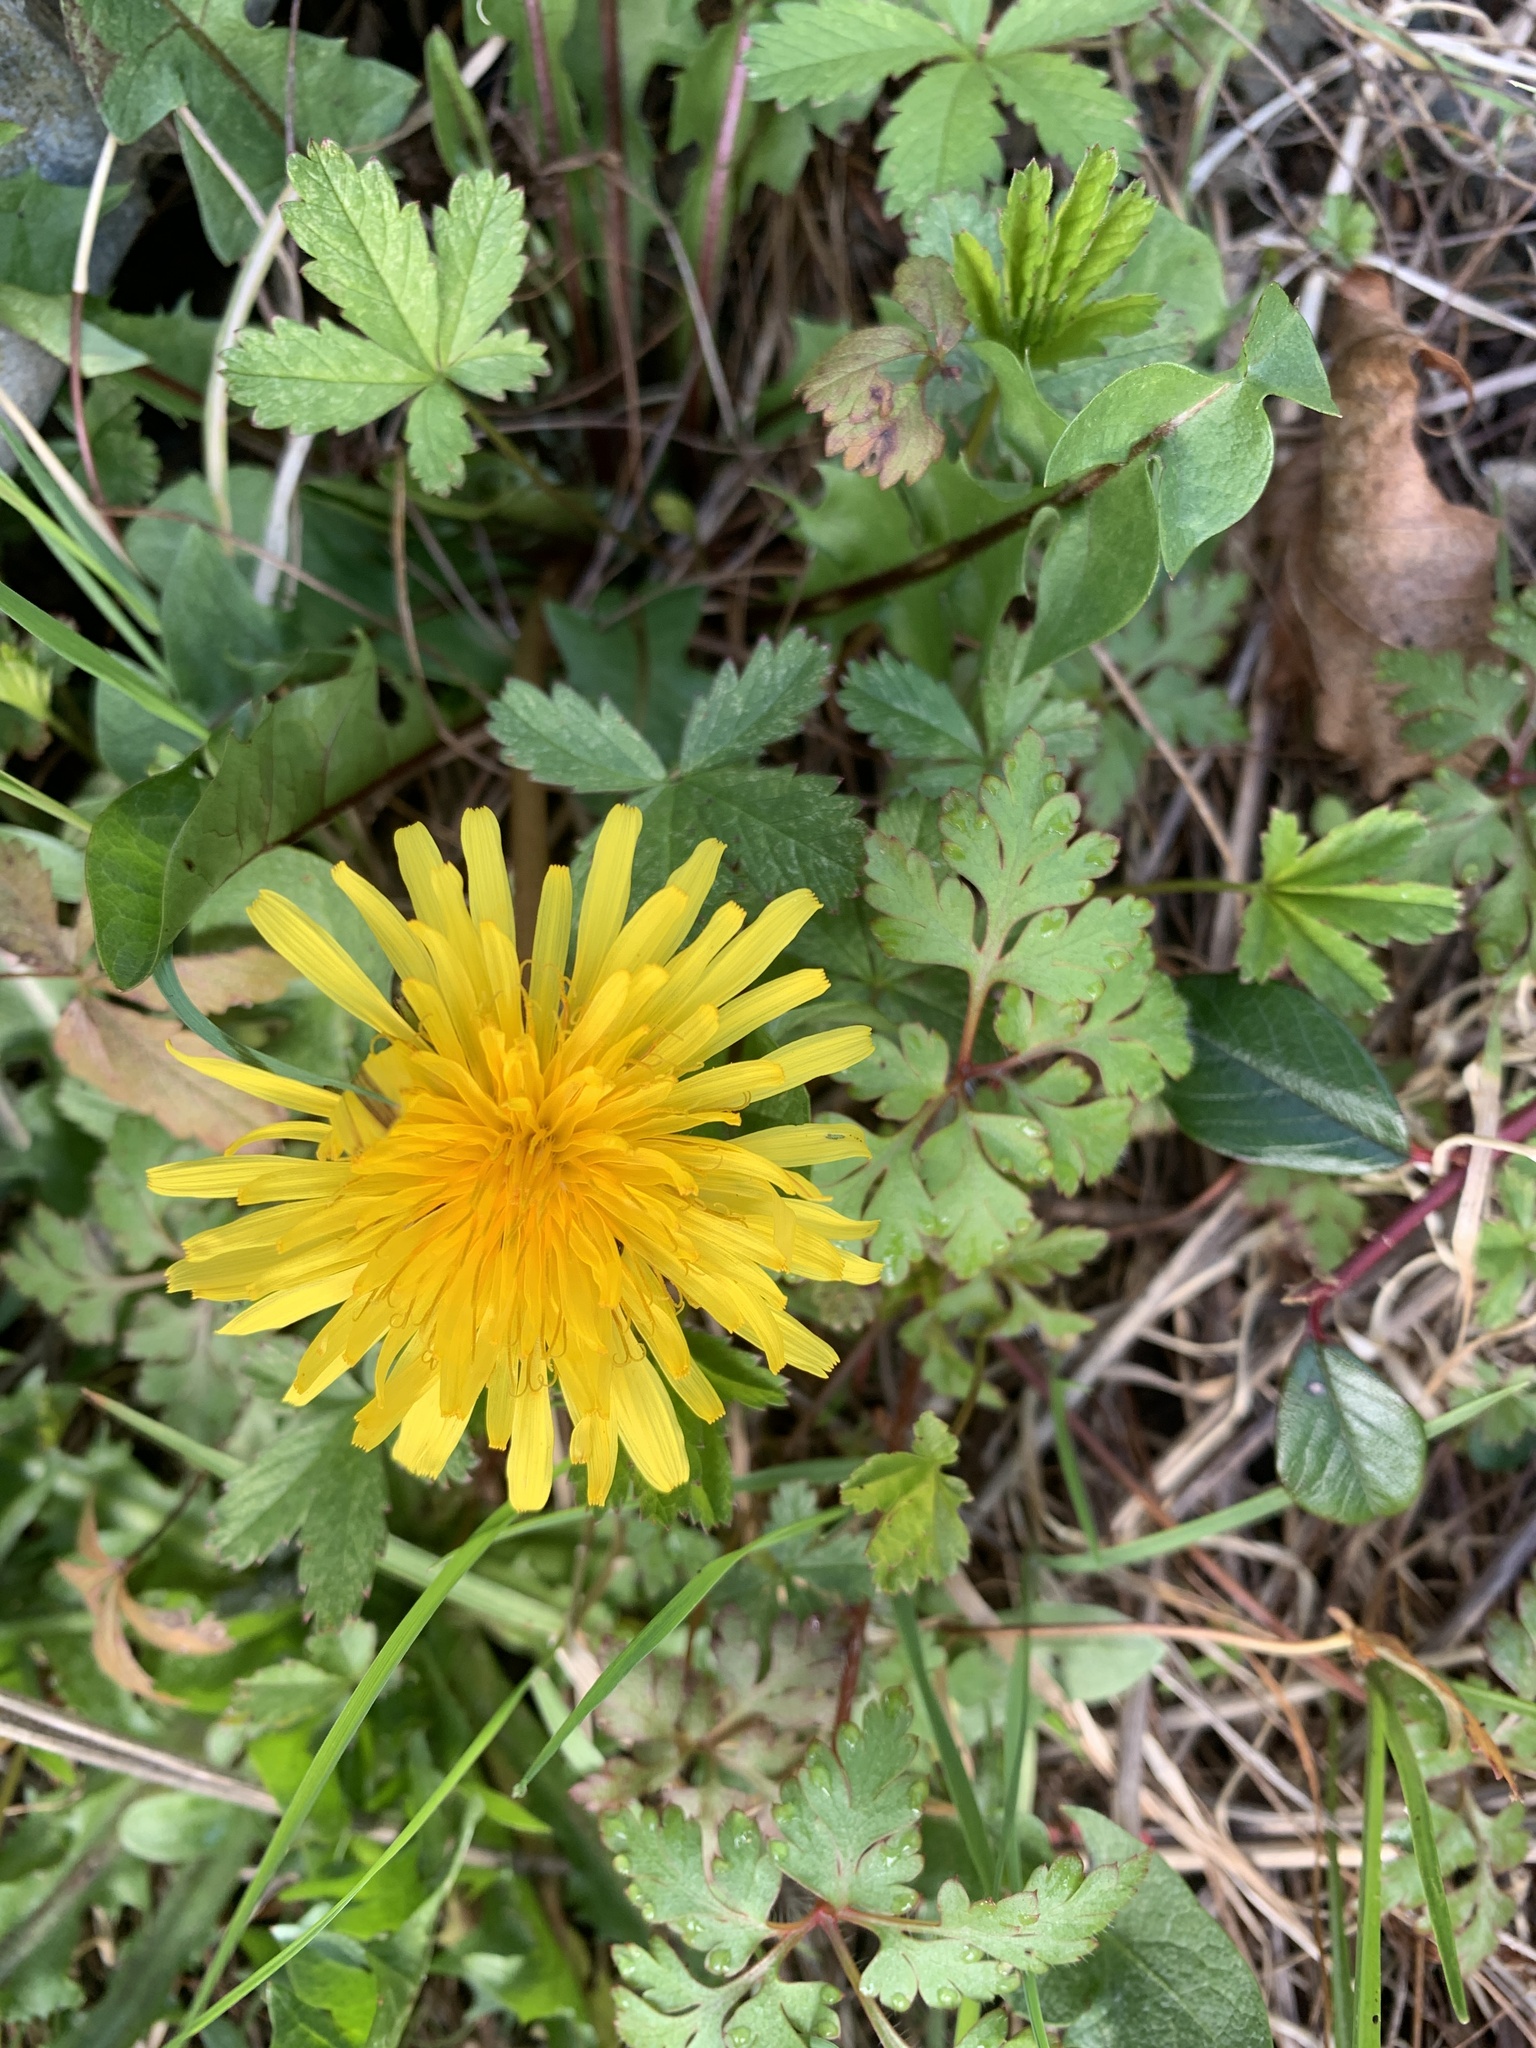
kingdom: Plantae
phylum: Tracheophyta
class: Magnoliopsida
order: Asterales
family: Asteraceae
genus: Taraxacum
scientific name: Taraxacum officinale
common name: Common dandelion
